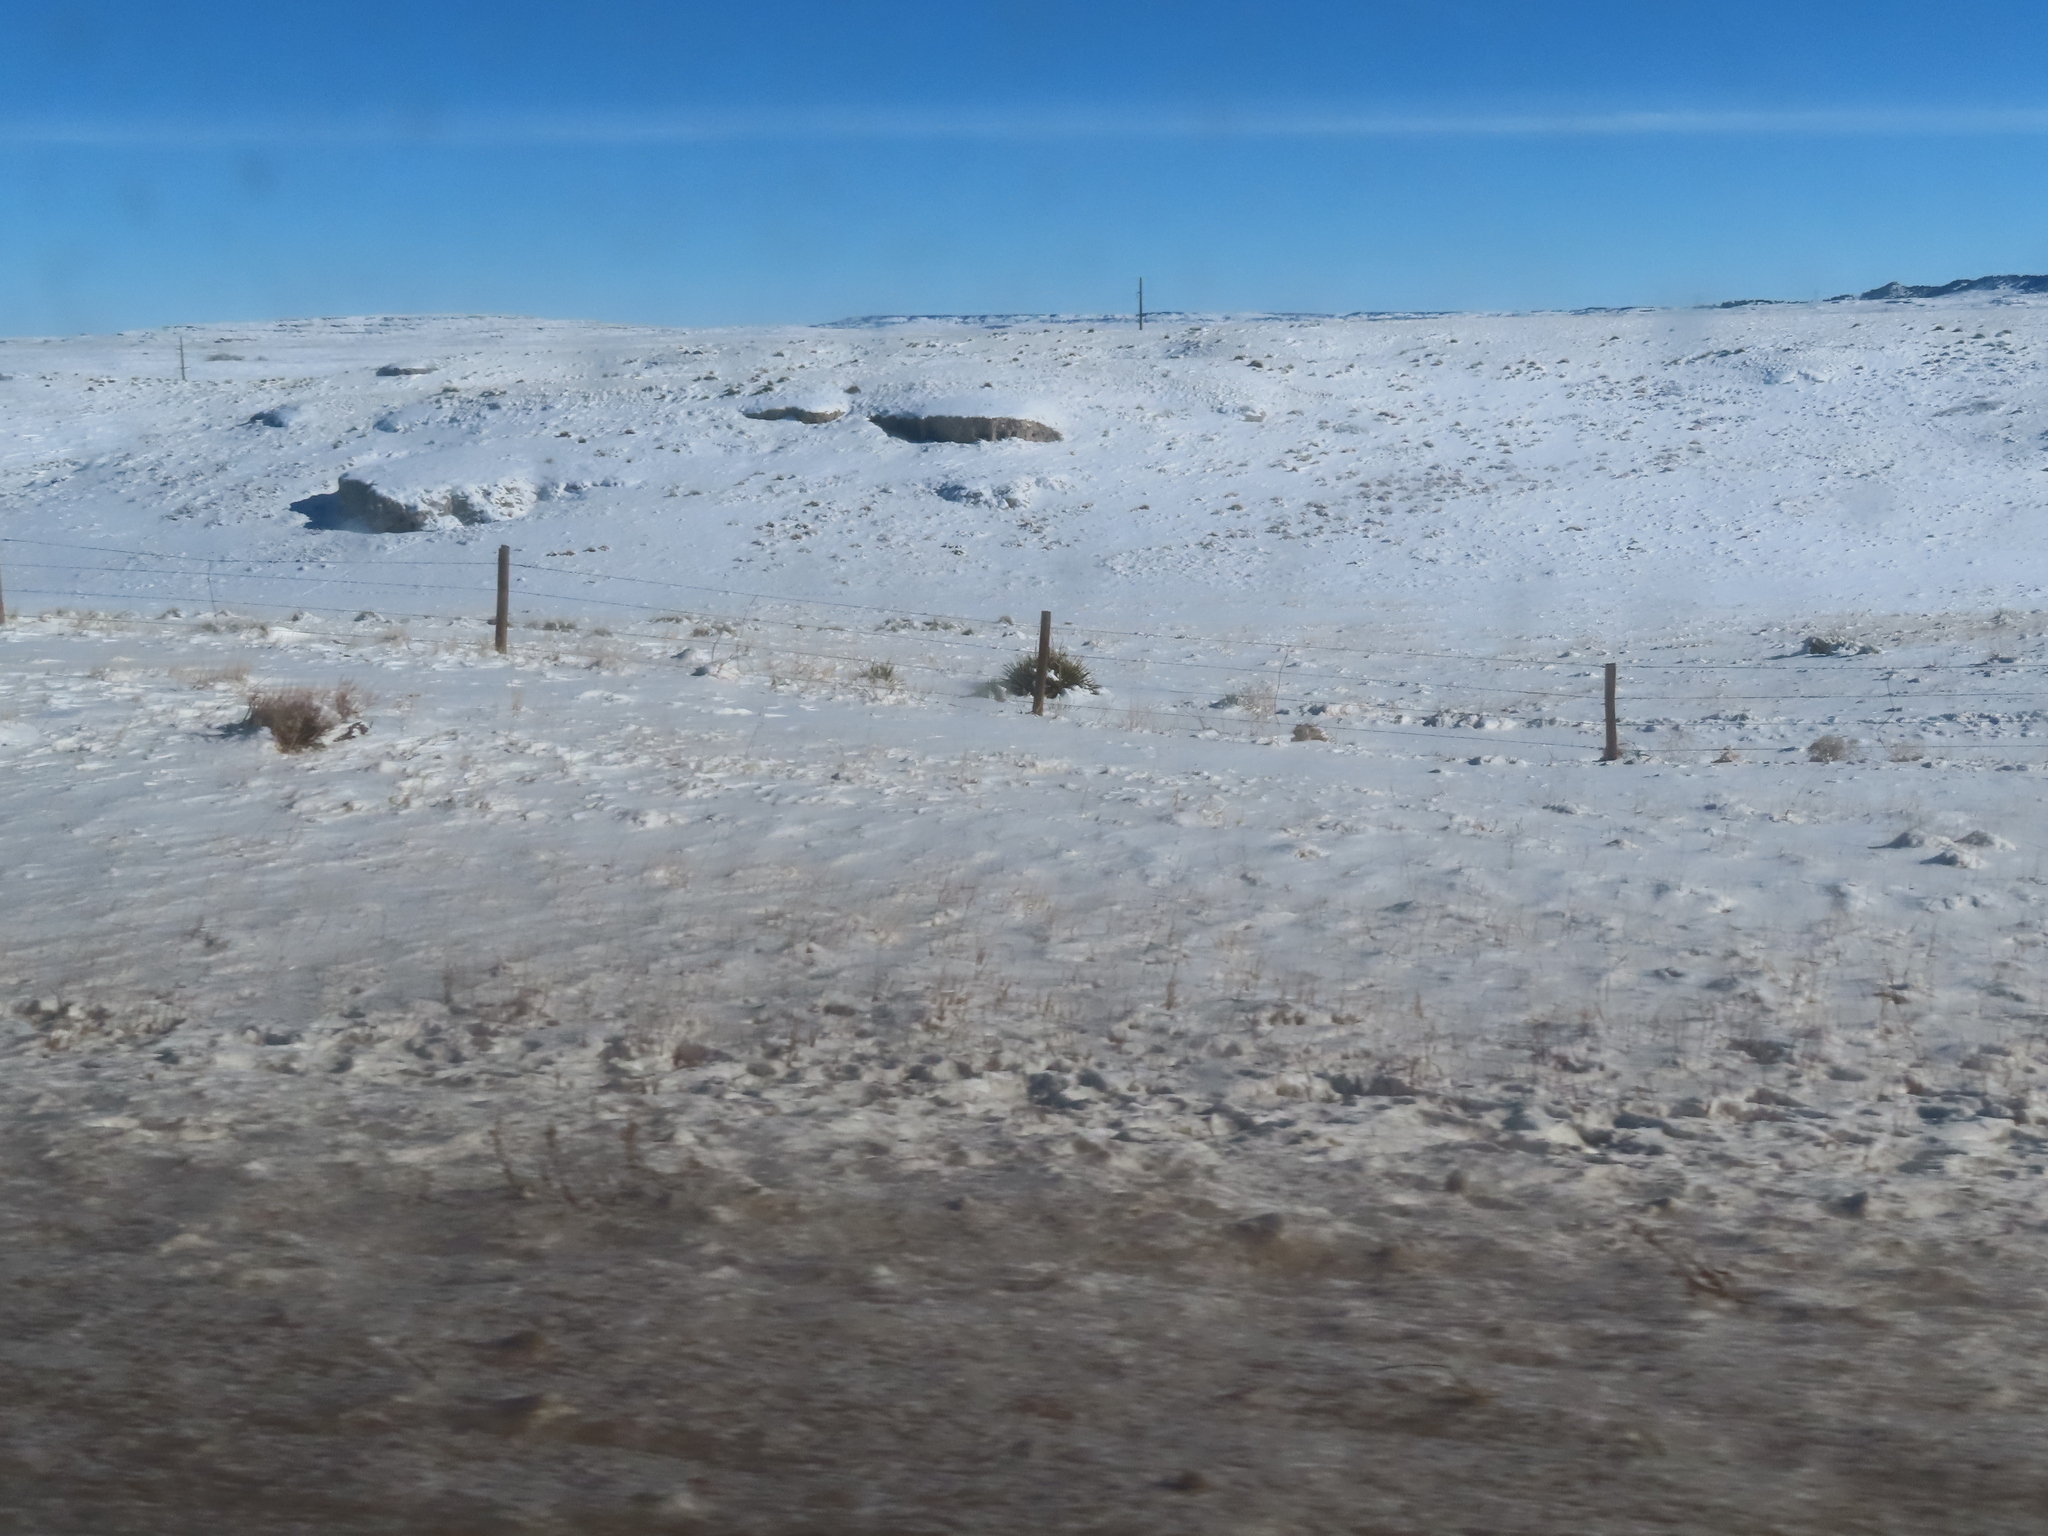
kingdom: Plantae
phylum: Tracheophyta
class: Liliopsida
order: Asparagales
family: Asparagaceae
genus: Yucca
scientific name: Yucca glauca
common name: Great plains yucca
